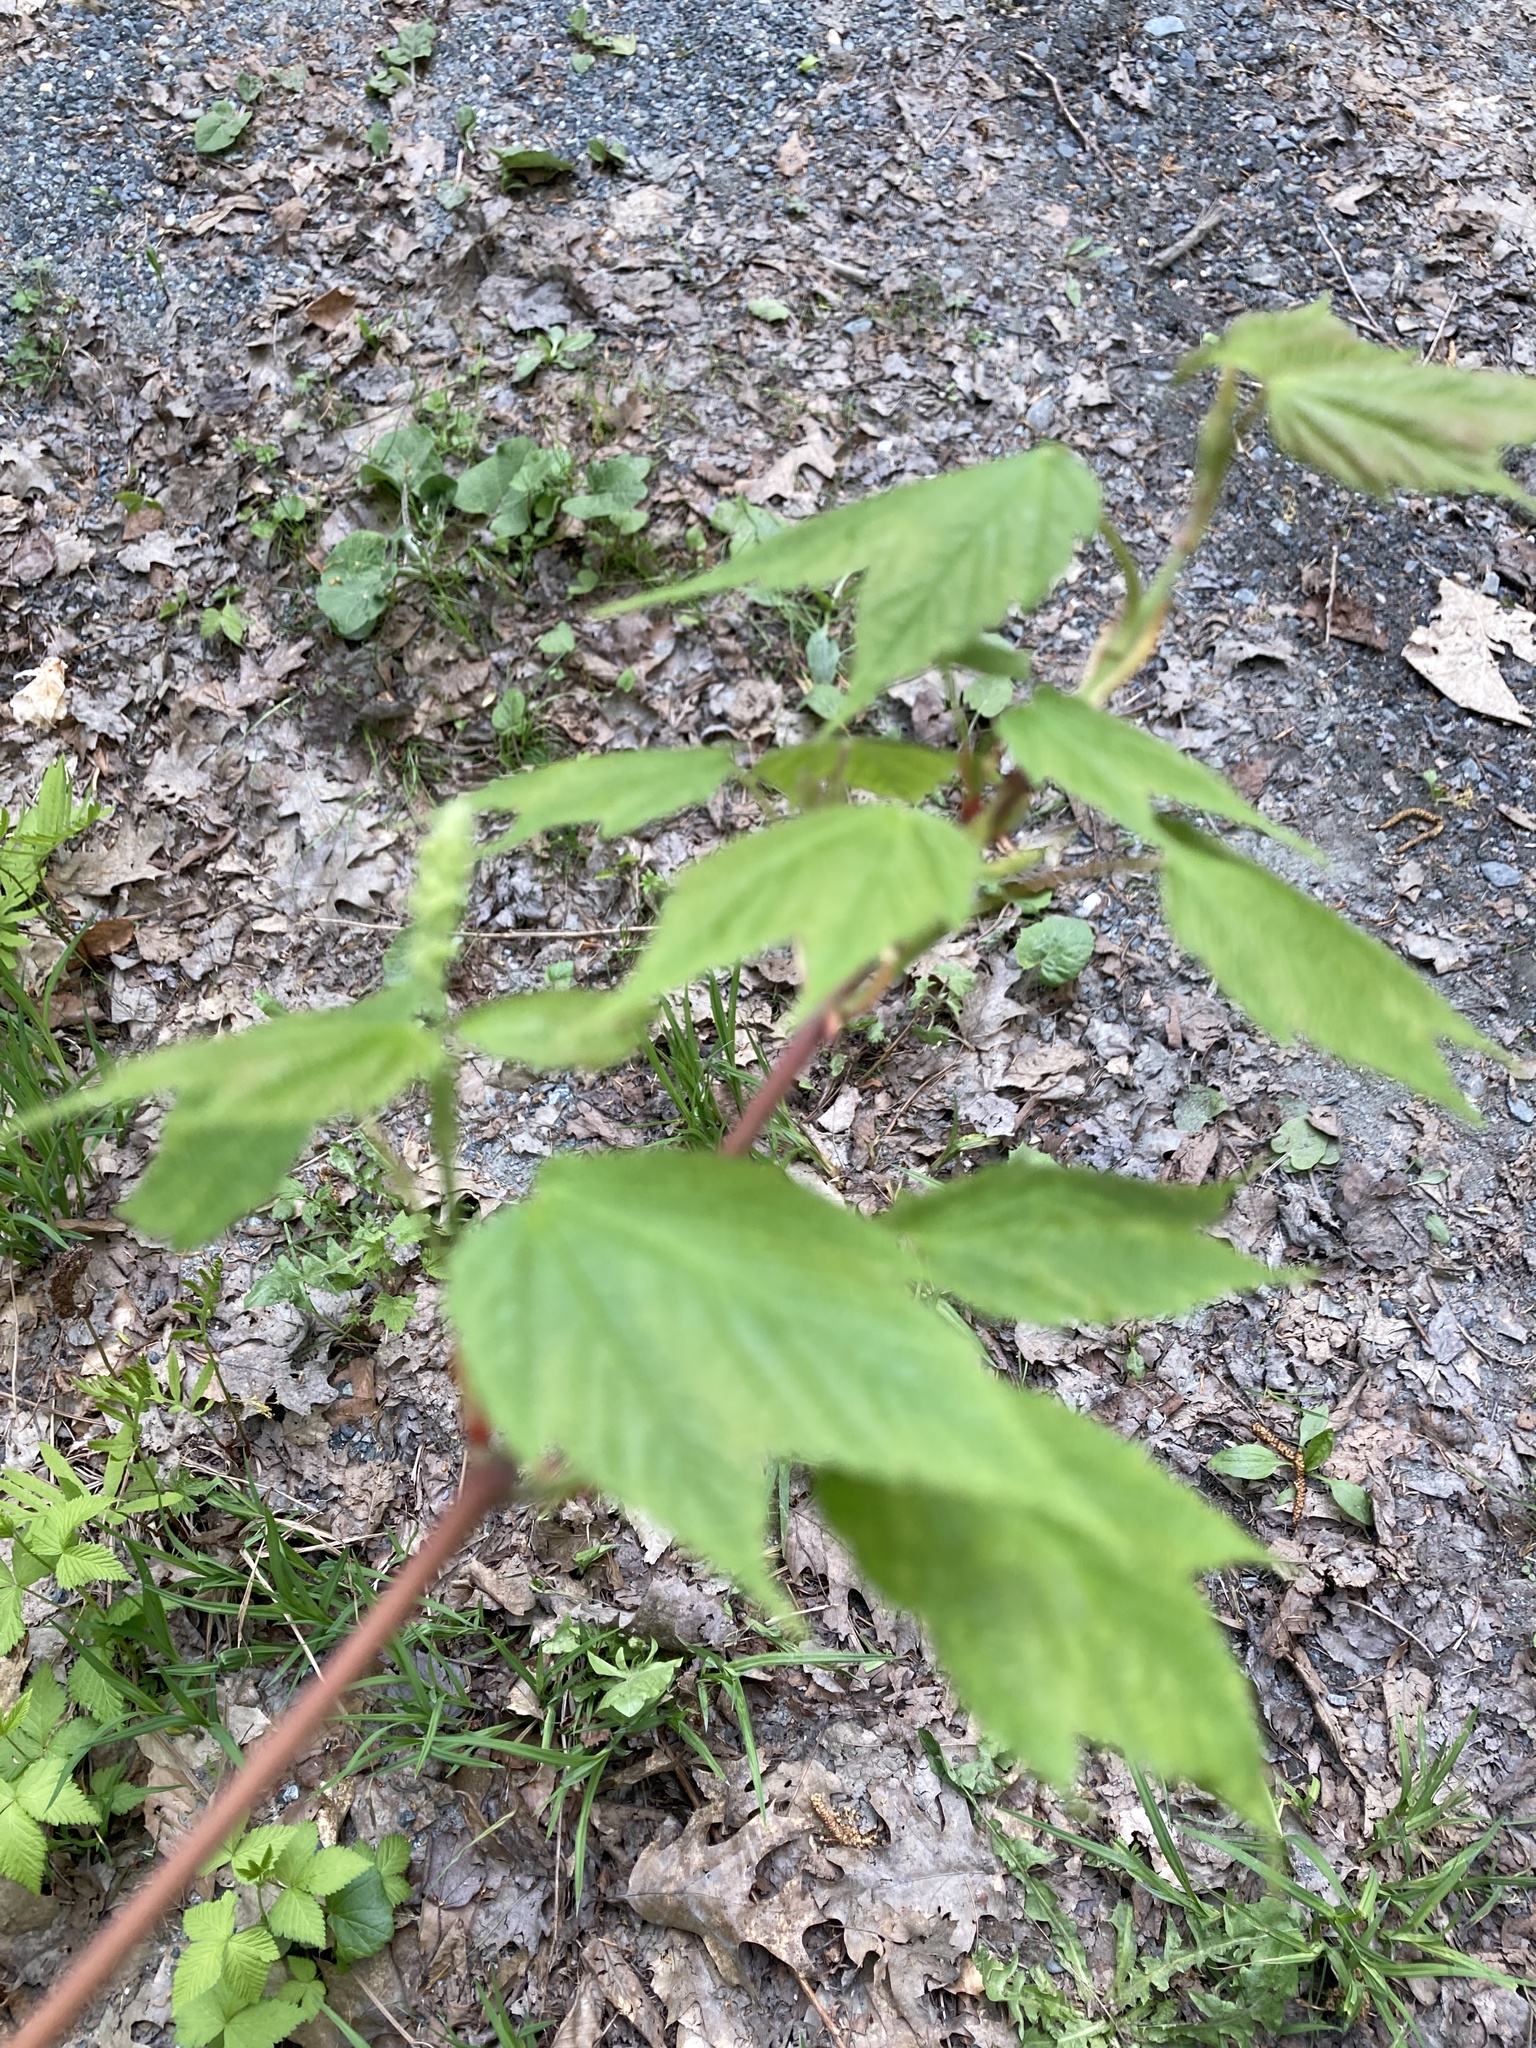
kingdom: Plantae
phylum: Tracheophyta
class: Magnoliopsida
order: Sapindales
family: Sapindaceae
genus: Acer
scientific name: Acer spicatum
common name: Mountain maple
